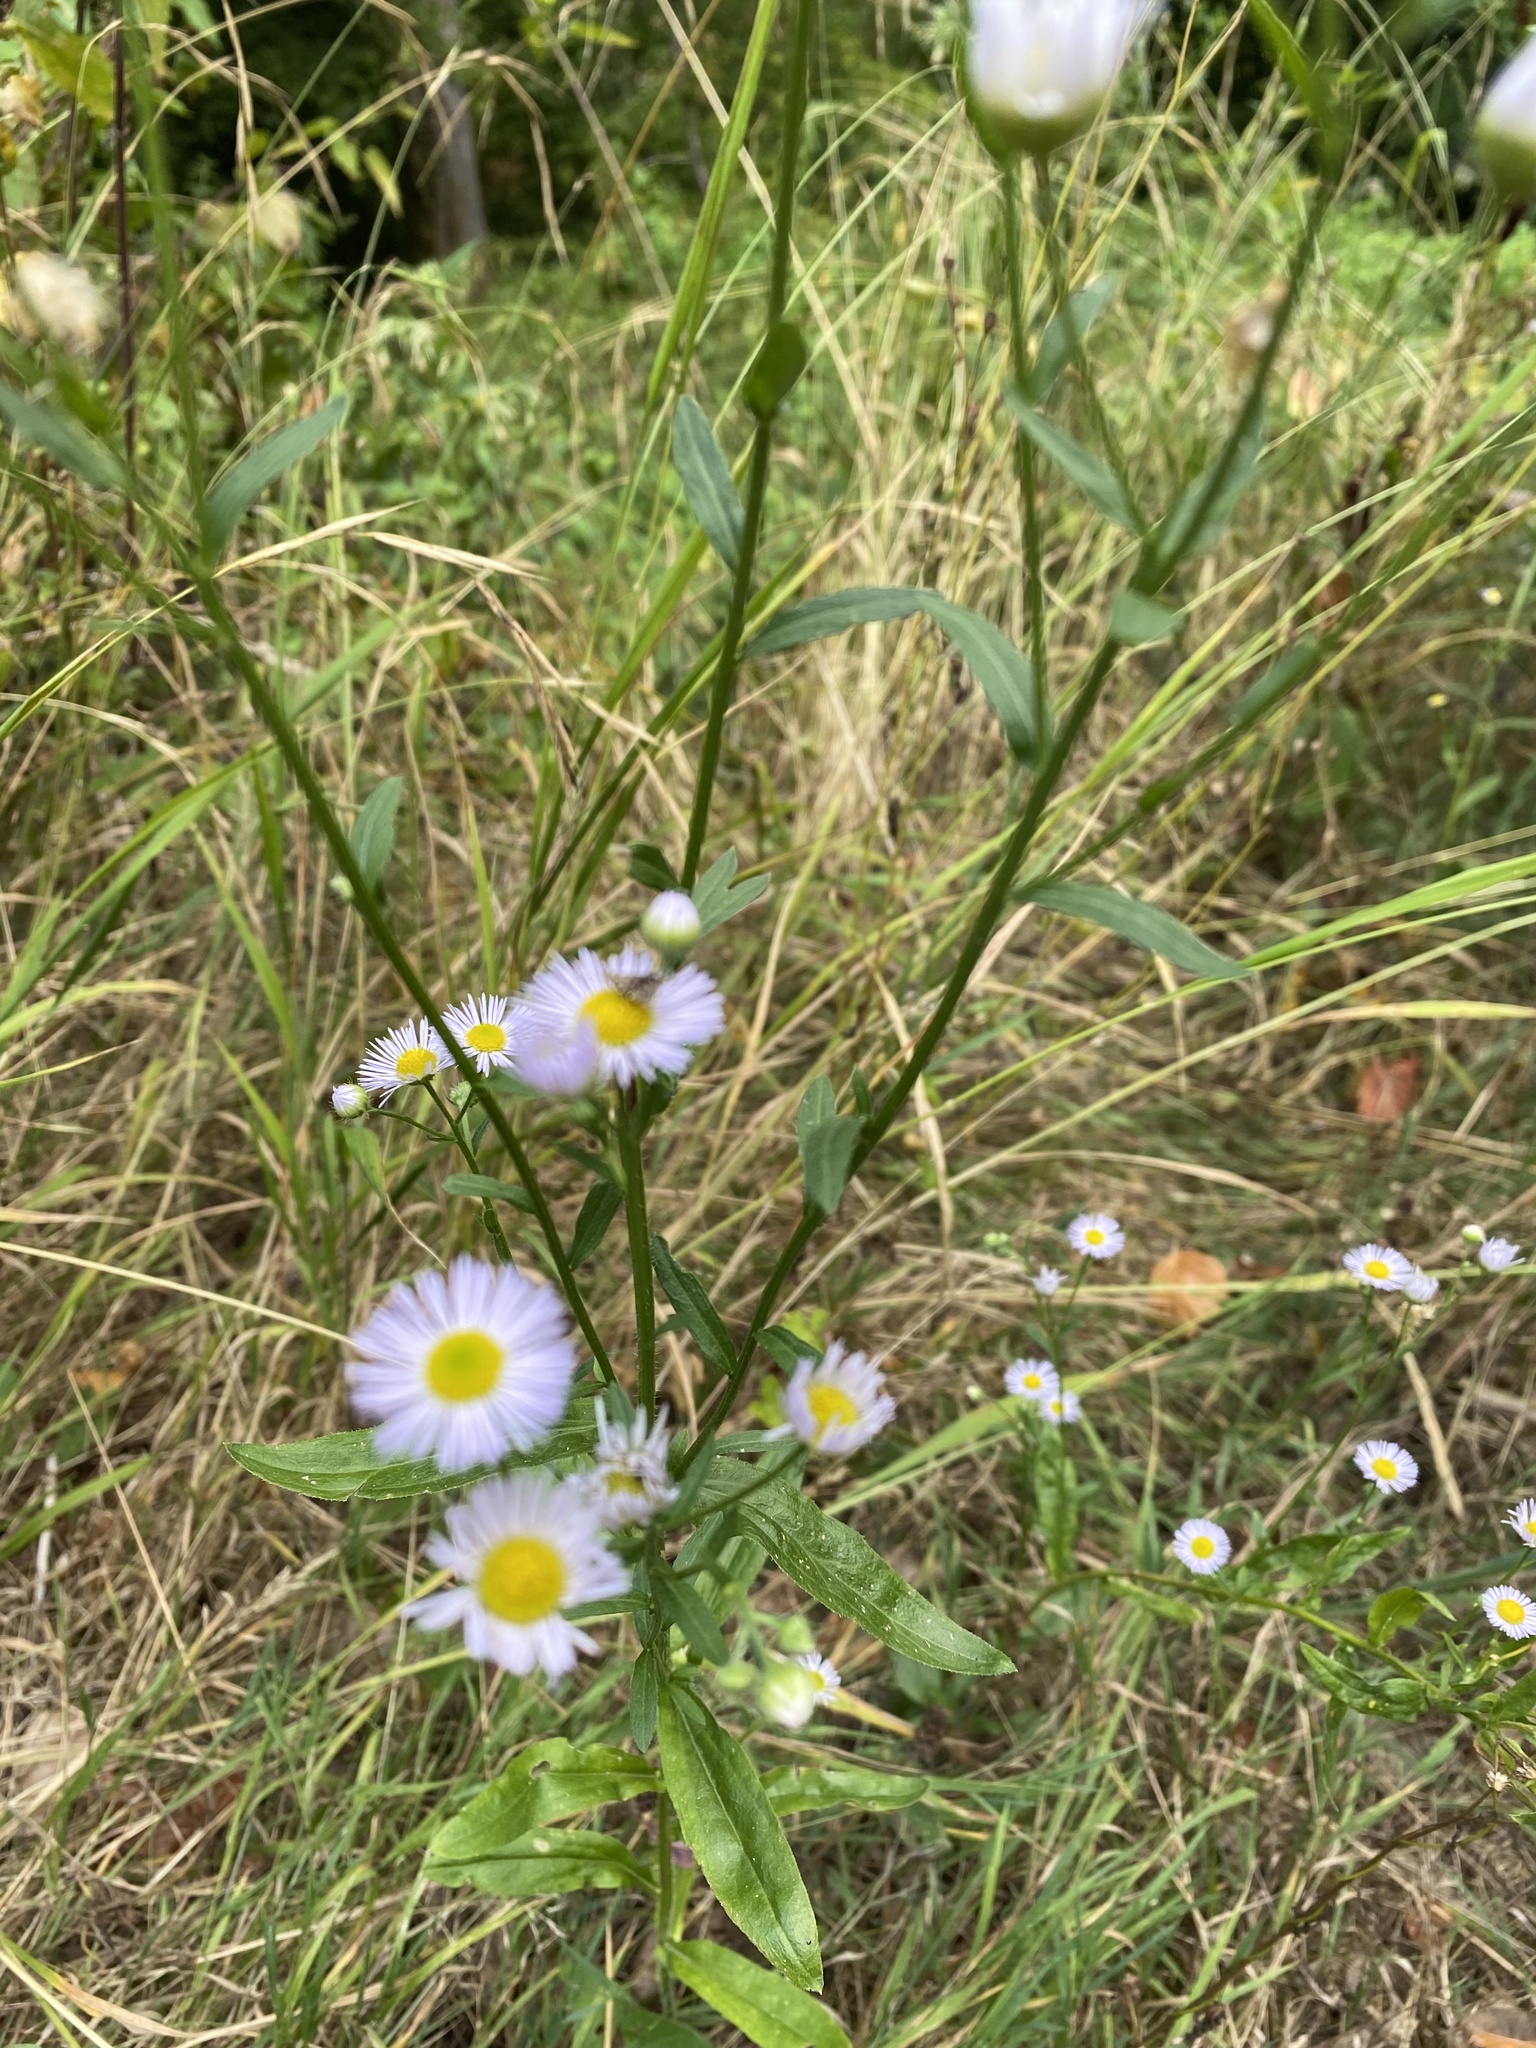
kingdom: Plantae
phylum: Tracheophyta
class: Magnoliopsida
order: Asterales
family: Asteraceae
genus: Erigeron
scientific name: Erigeron annuus
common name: Tall fleabane
